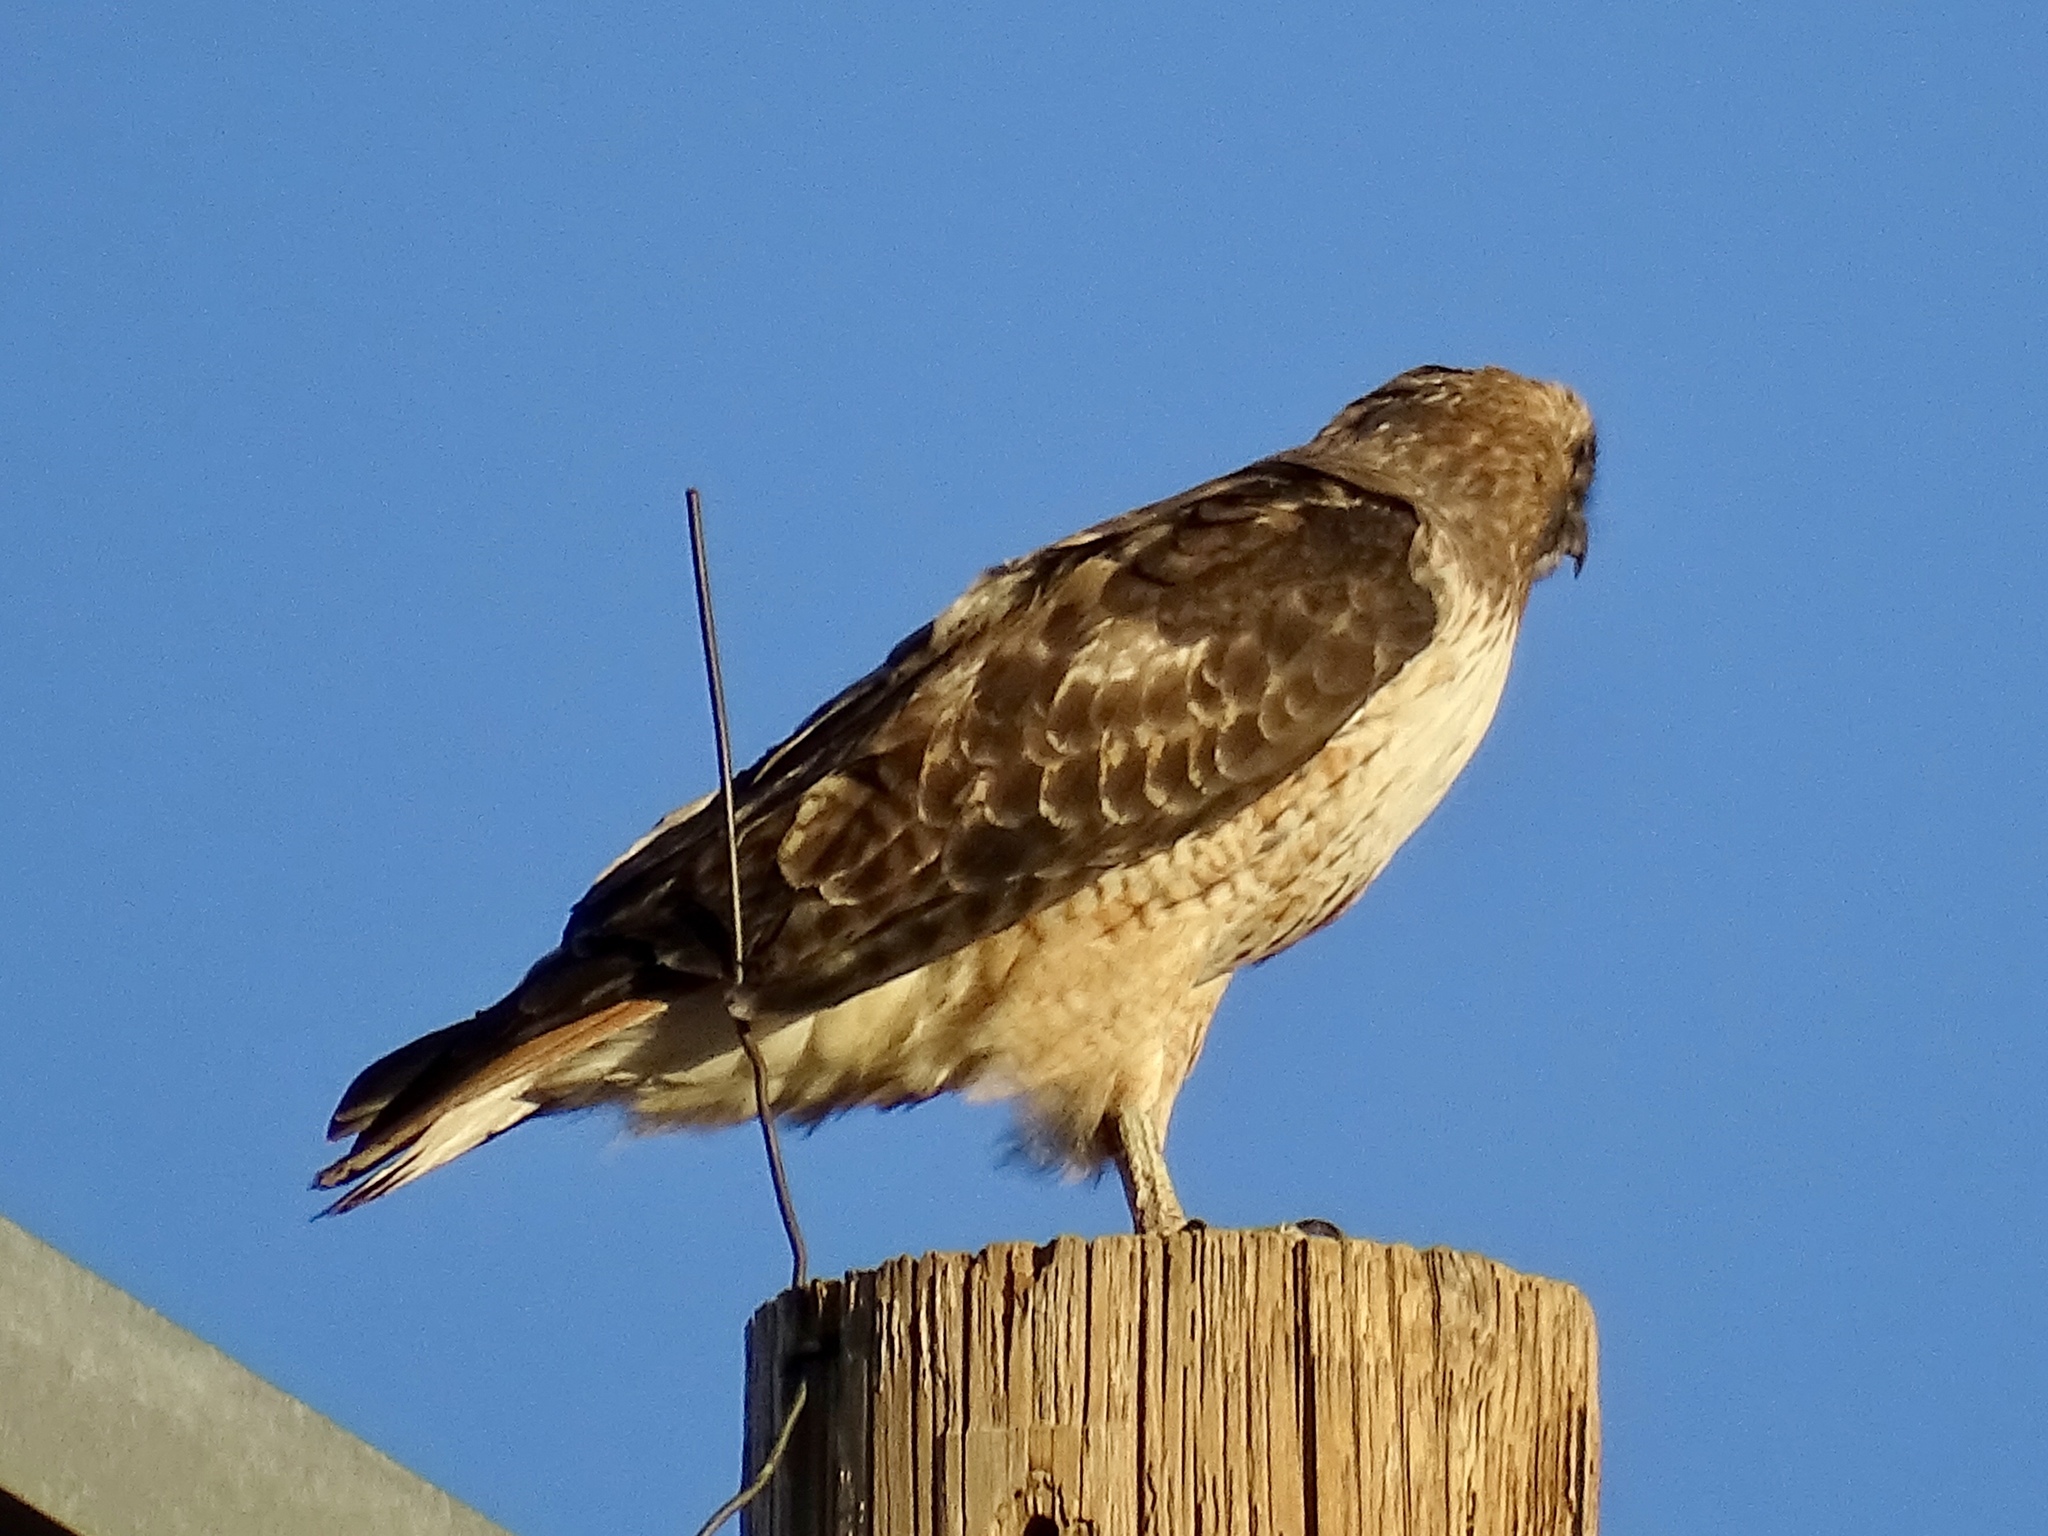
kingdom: Animalia
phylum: Chordata
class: Aves
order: Accipitriformes
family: Accipitridae
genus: Buteo
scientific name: Buteo jamaicensis
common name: Red-tailed hawk
